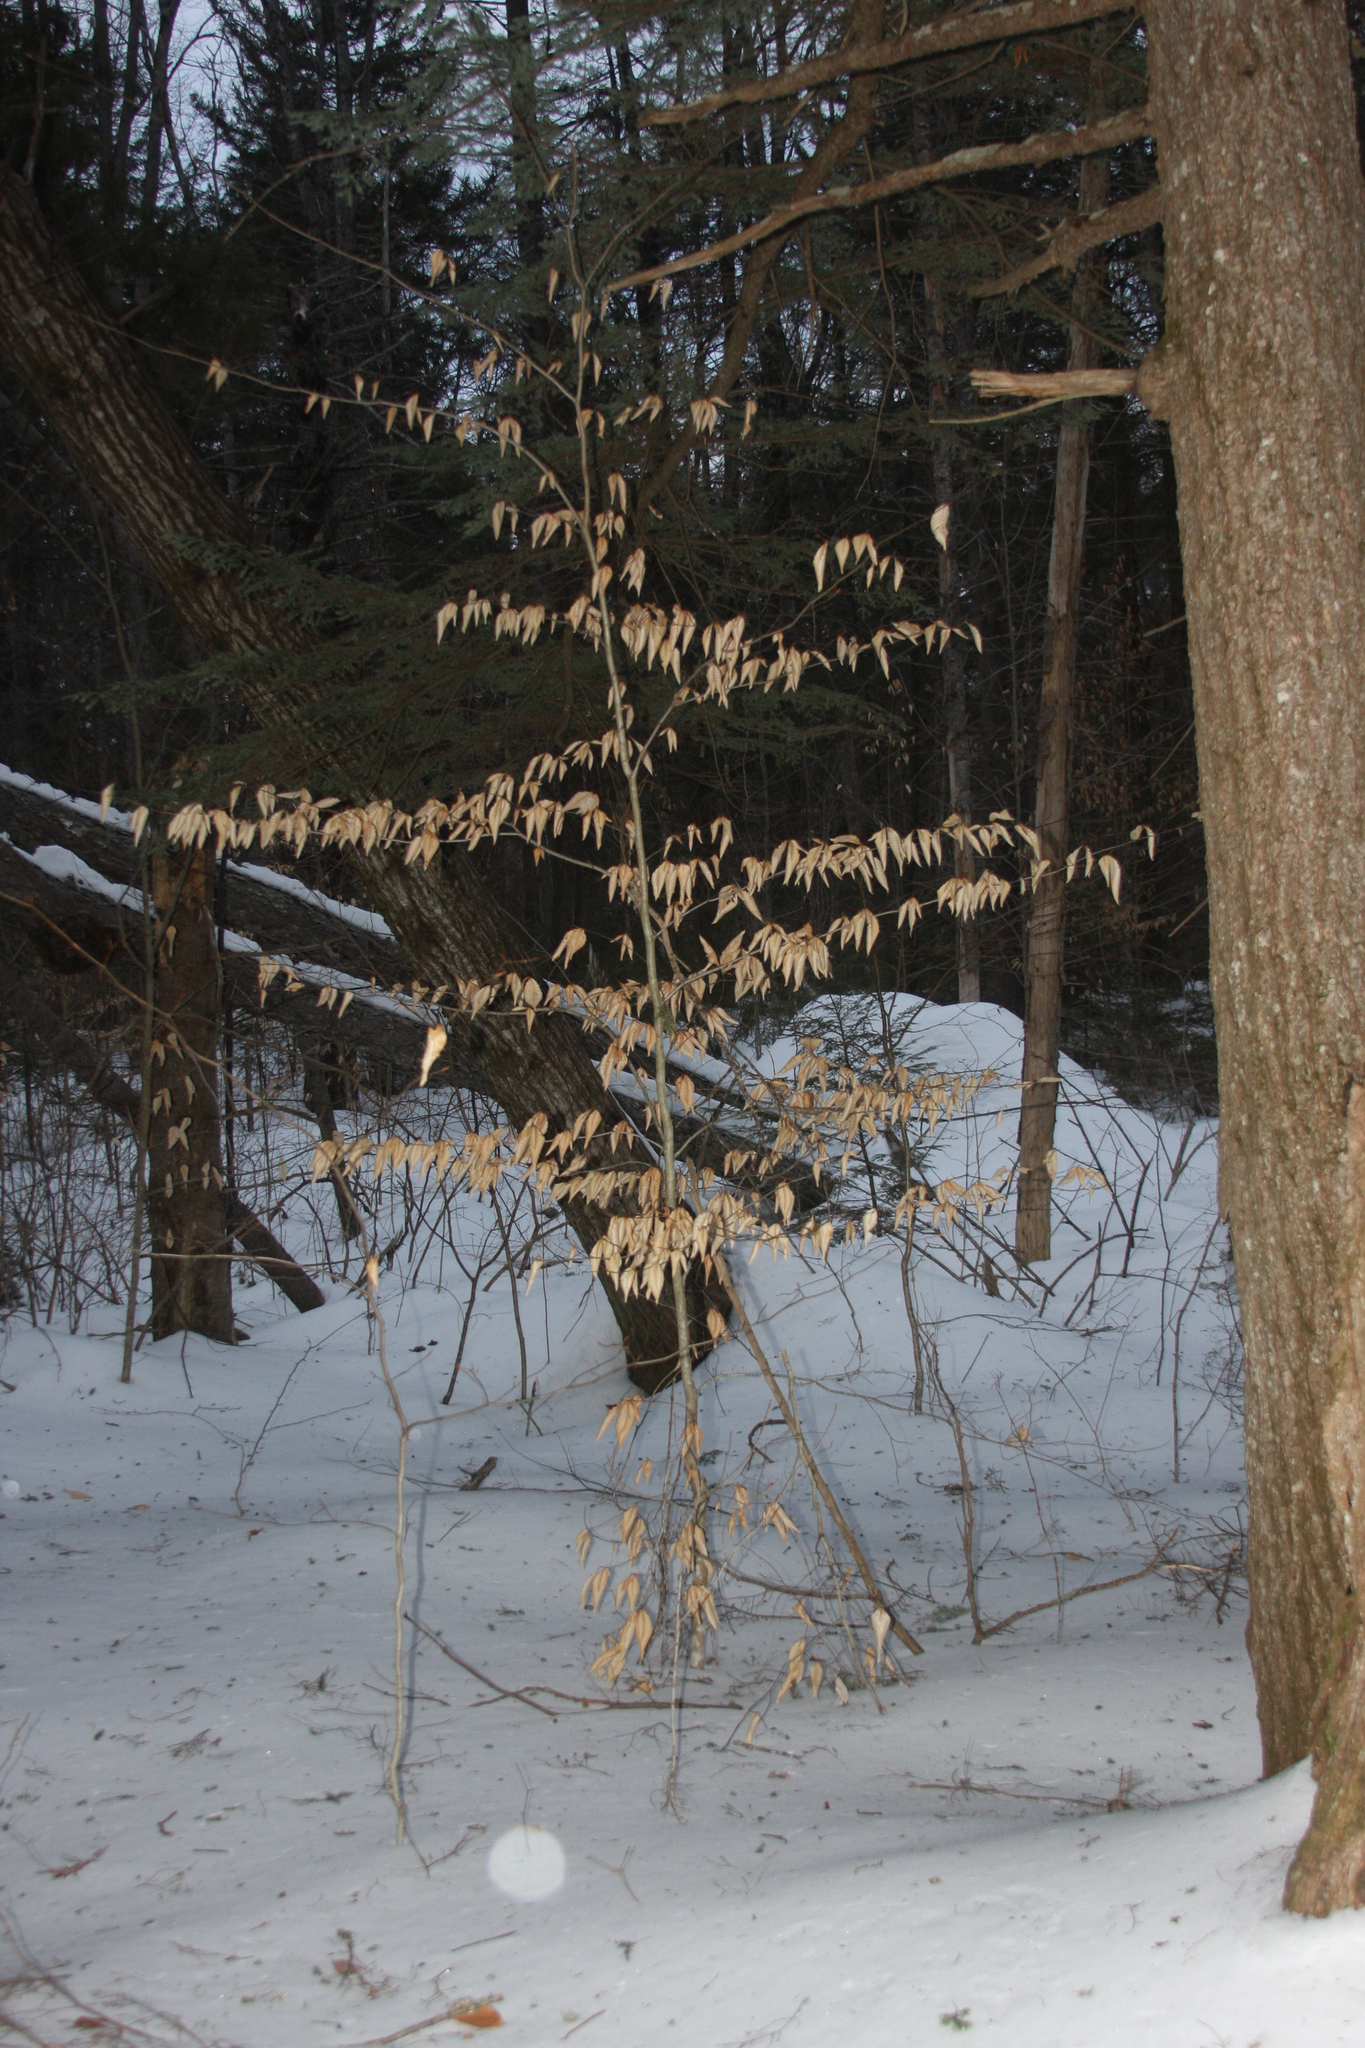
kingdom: Plantae
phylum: Tracheophyta
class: Magnoliopsida
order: Fagales
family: Fagaceae
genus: Fagus
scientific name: Fagus grandifolia
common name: American beech
